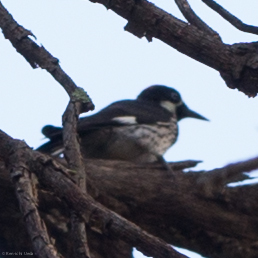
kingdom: Animalia
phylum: Chordata
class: Aves
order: Piciformes
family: Picidae
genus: Melanerpes
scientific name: Melanerpes formicivorus
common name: Acorn woodpecker
